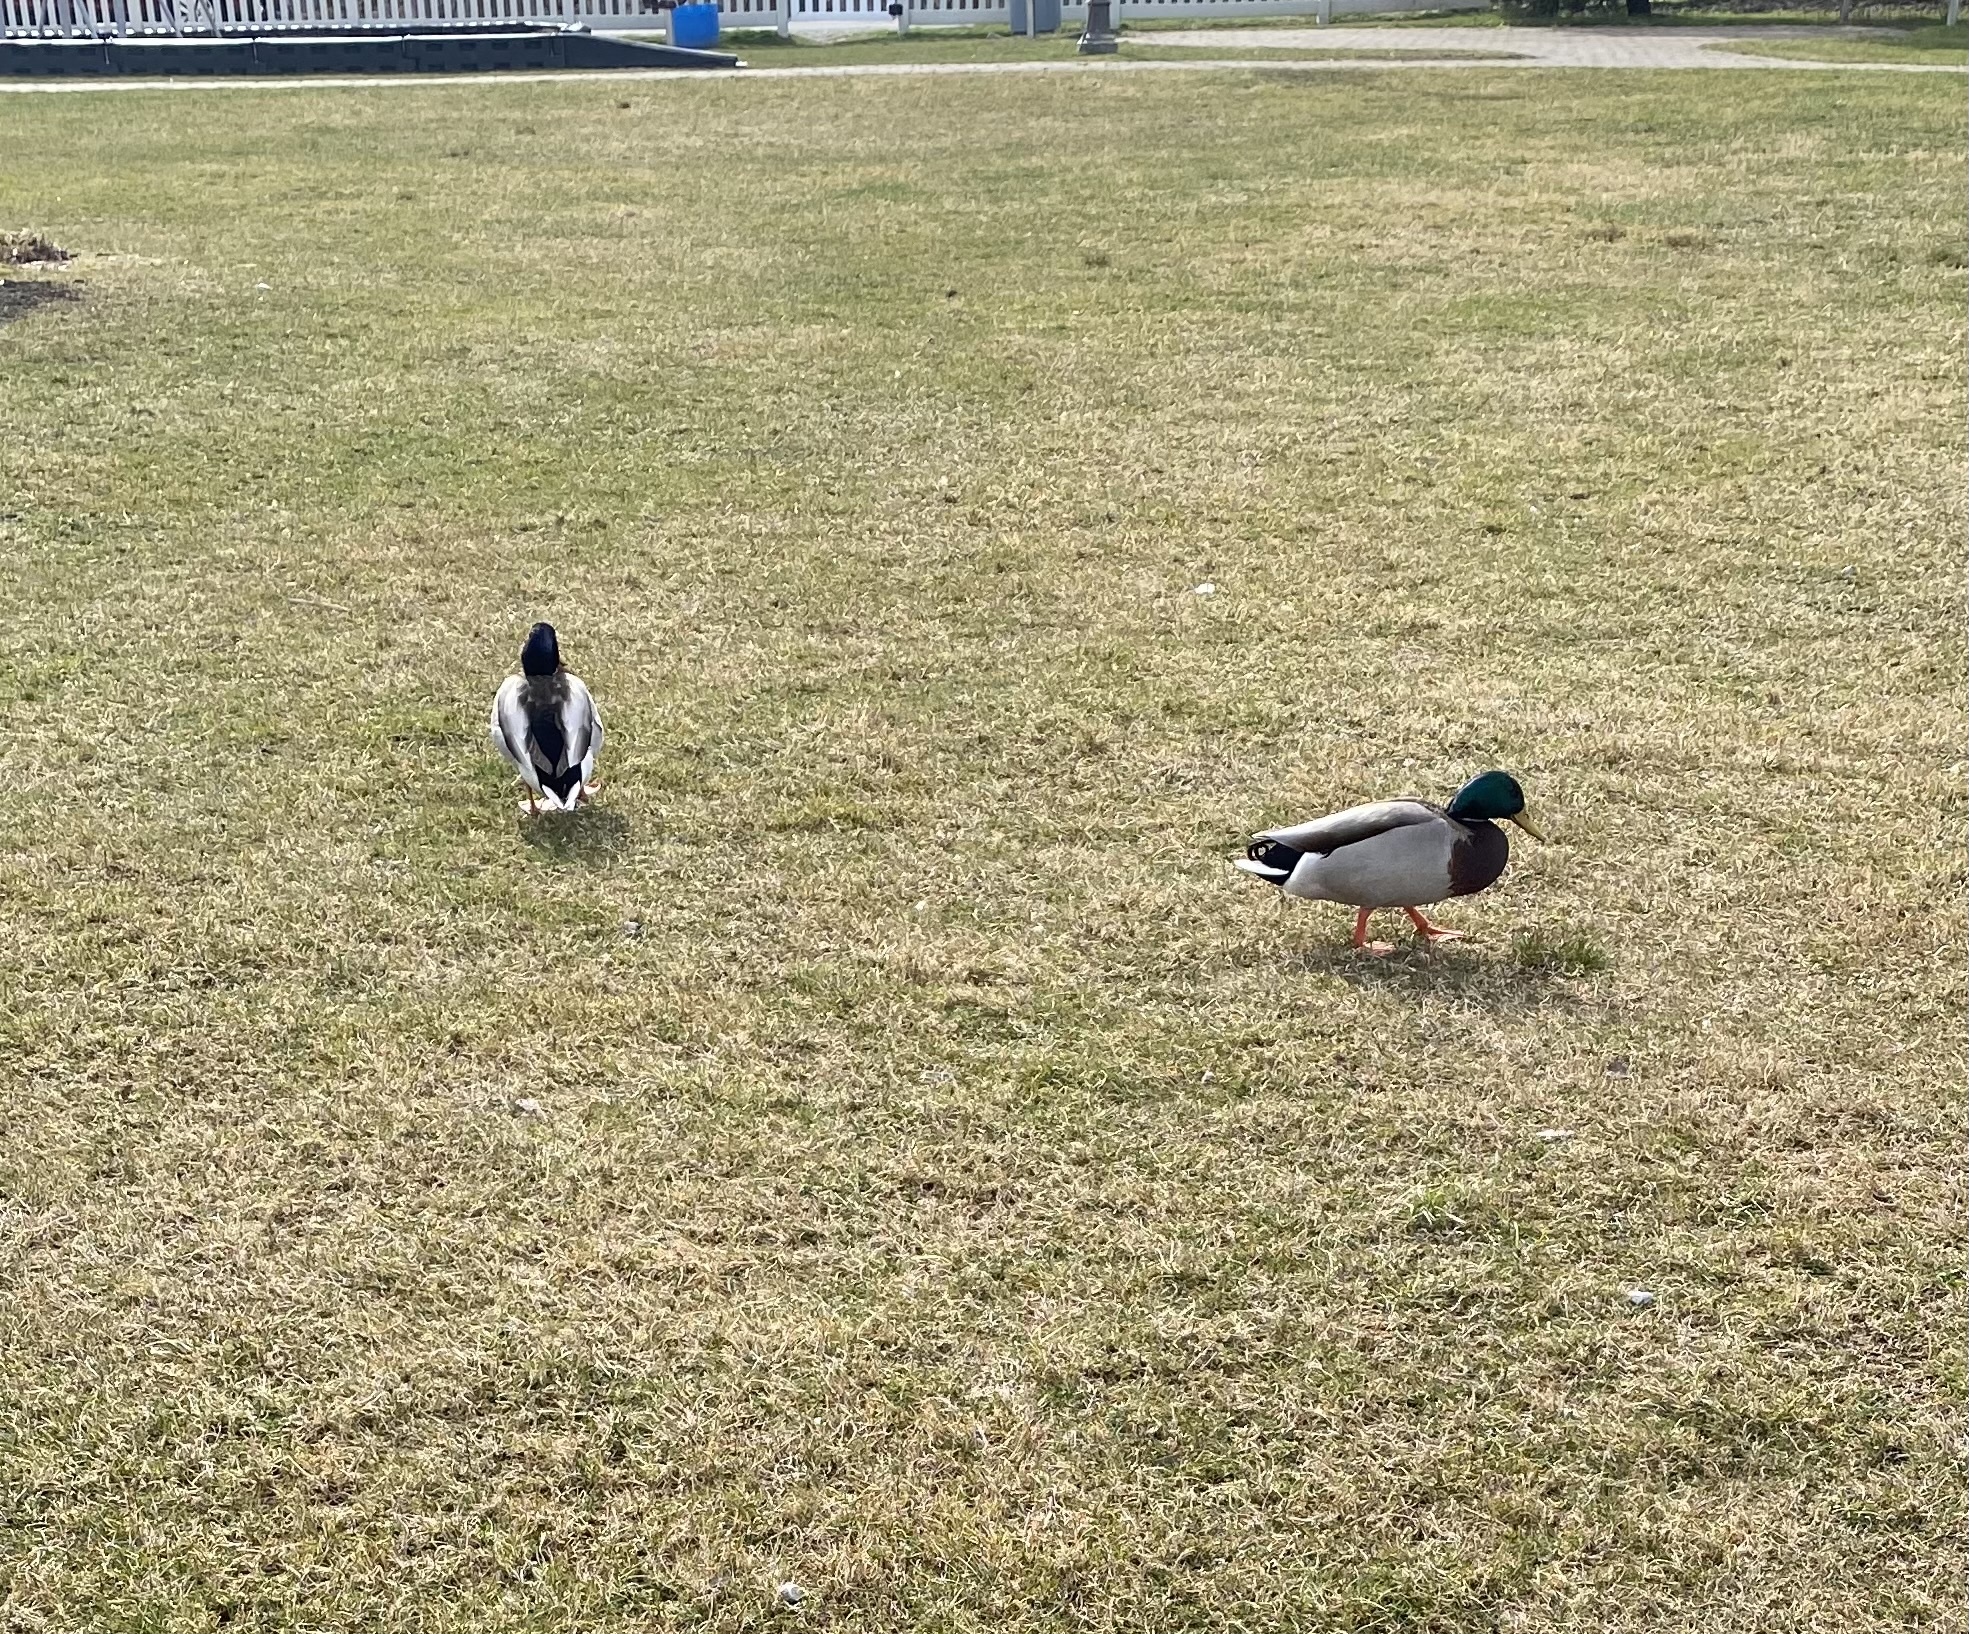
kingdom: Animalia
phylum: Chordata
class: Aves
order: Anseriformes
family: Anatidae
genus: Anas
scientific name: Anas platyrhynchos
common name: Mallard
